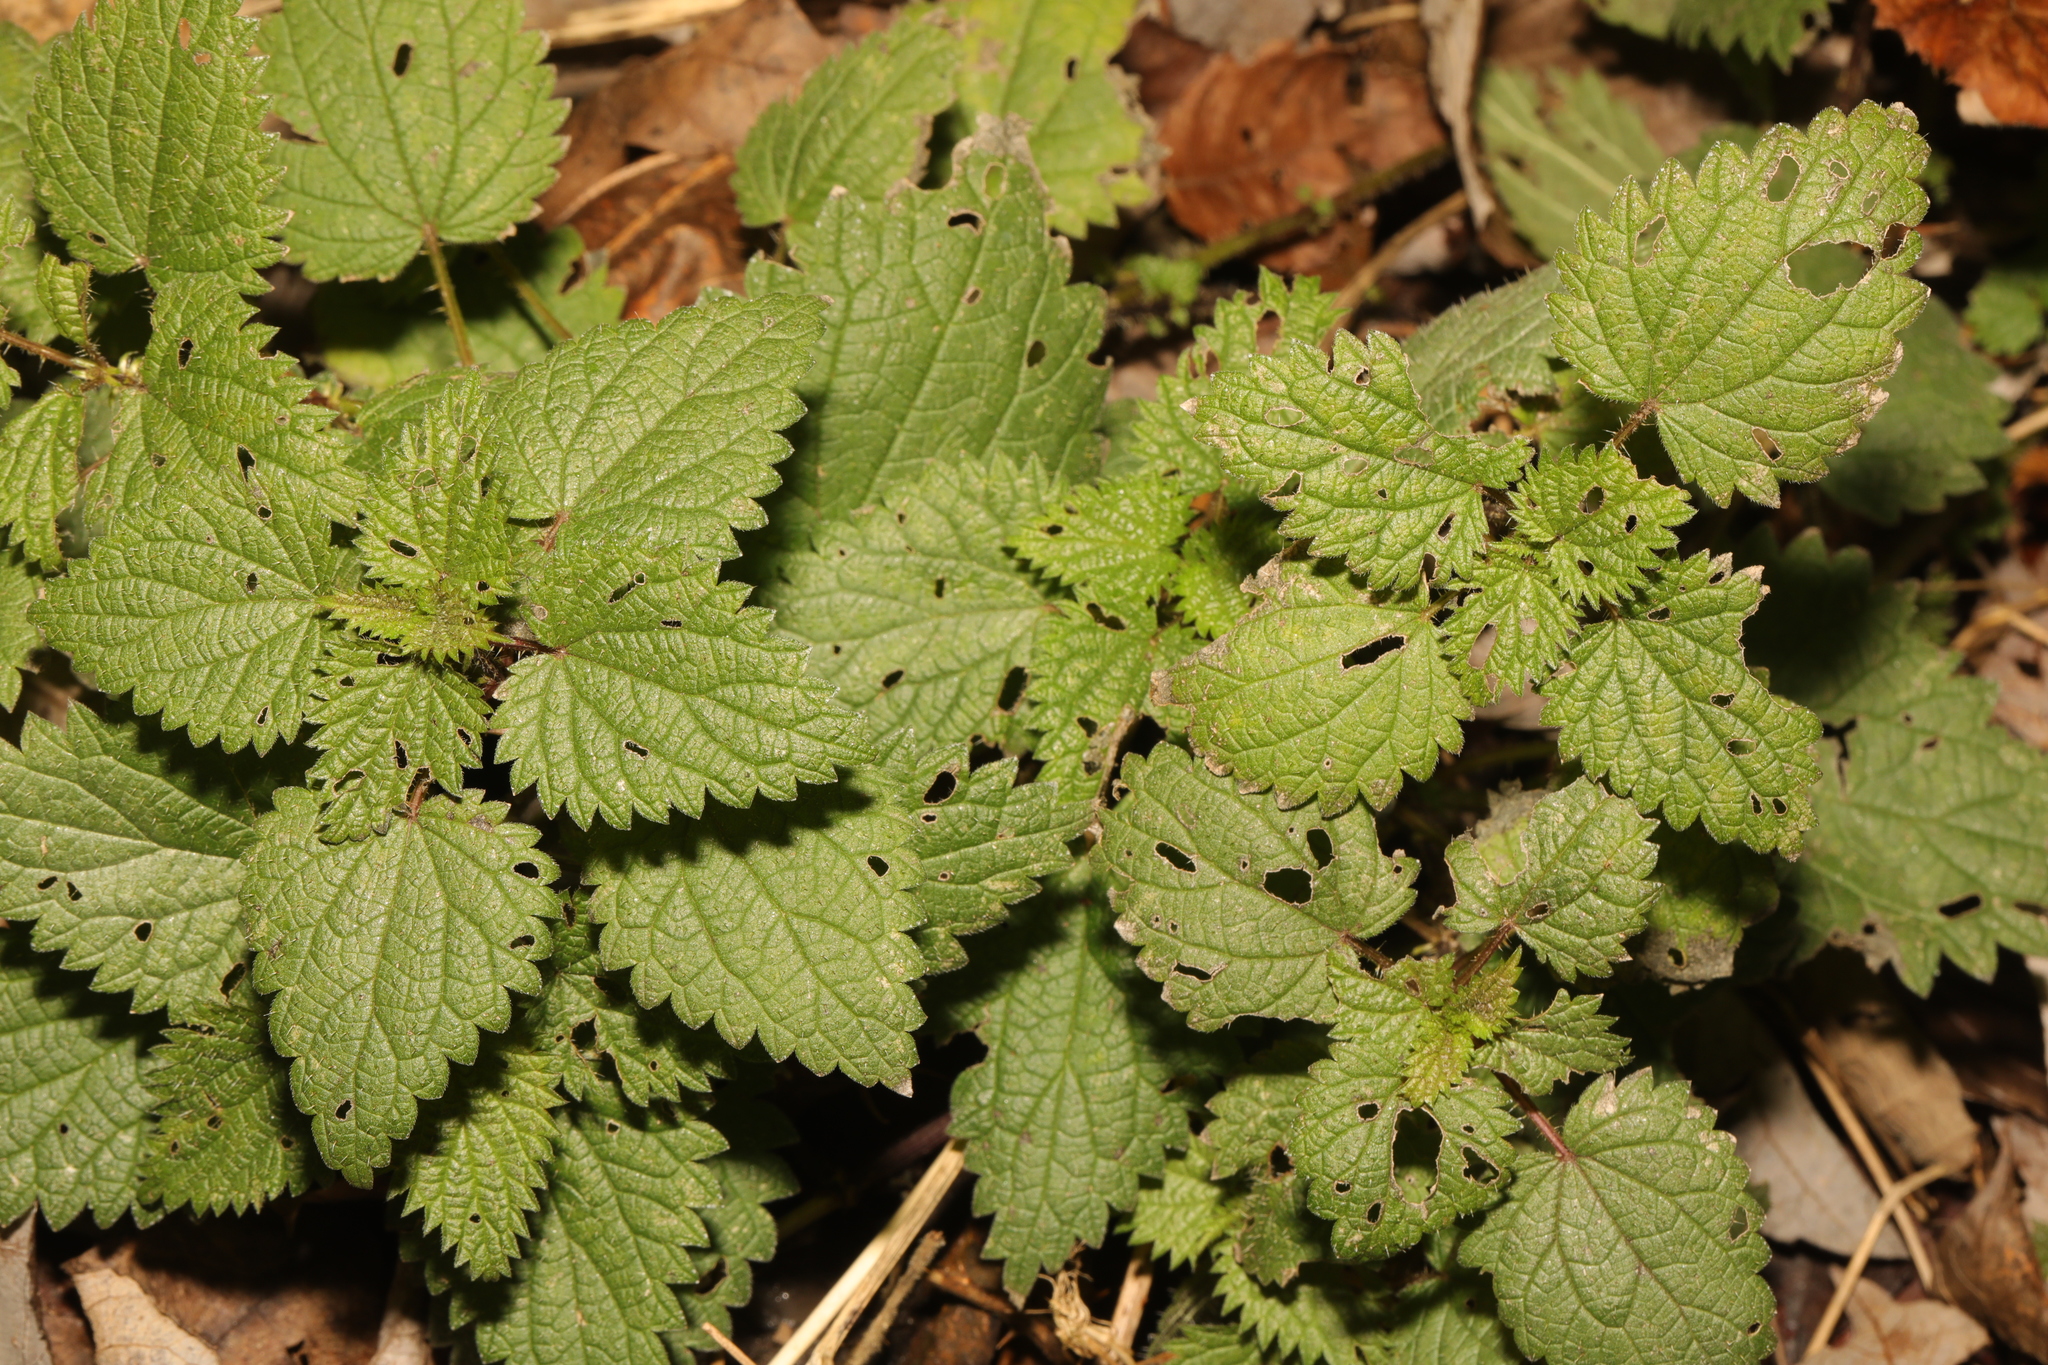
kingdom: Plantae
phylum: Tracheophyta
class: Magnoliopsida
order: Rosales
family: Urticaceae
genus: Urtica
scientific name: Urtica dioica
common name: Common nettle
